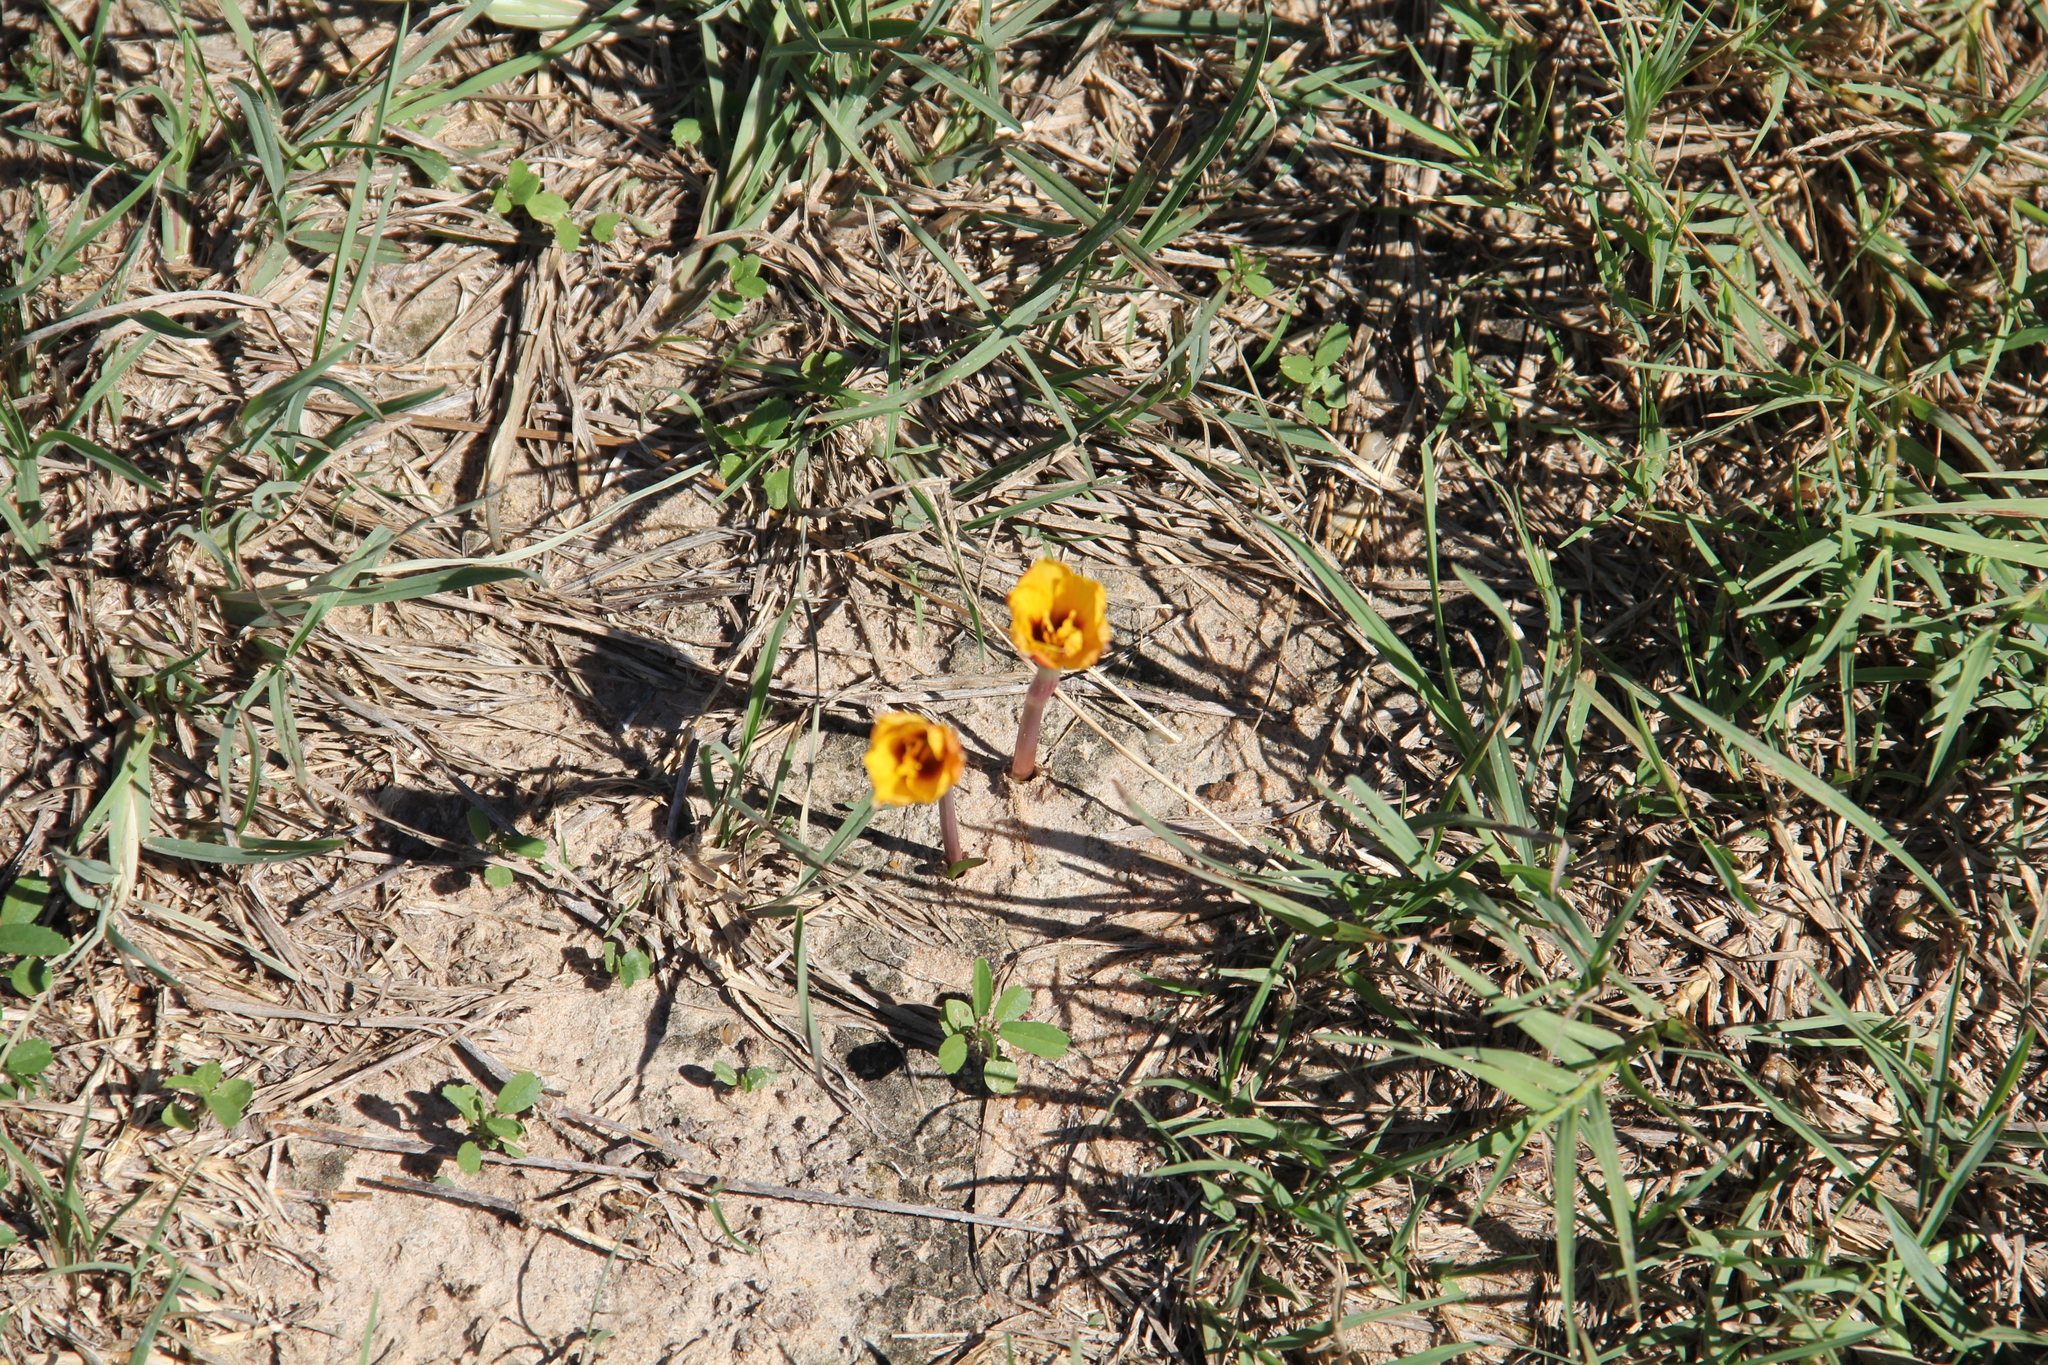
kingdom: Plantae
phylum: Tracheophyta
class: Liliopsida
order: Asparagales
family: Amaryllidaceae
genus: Zephyranthes
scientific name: Zephyranthes tubispatha
